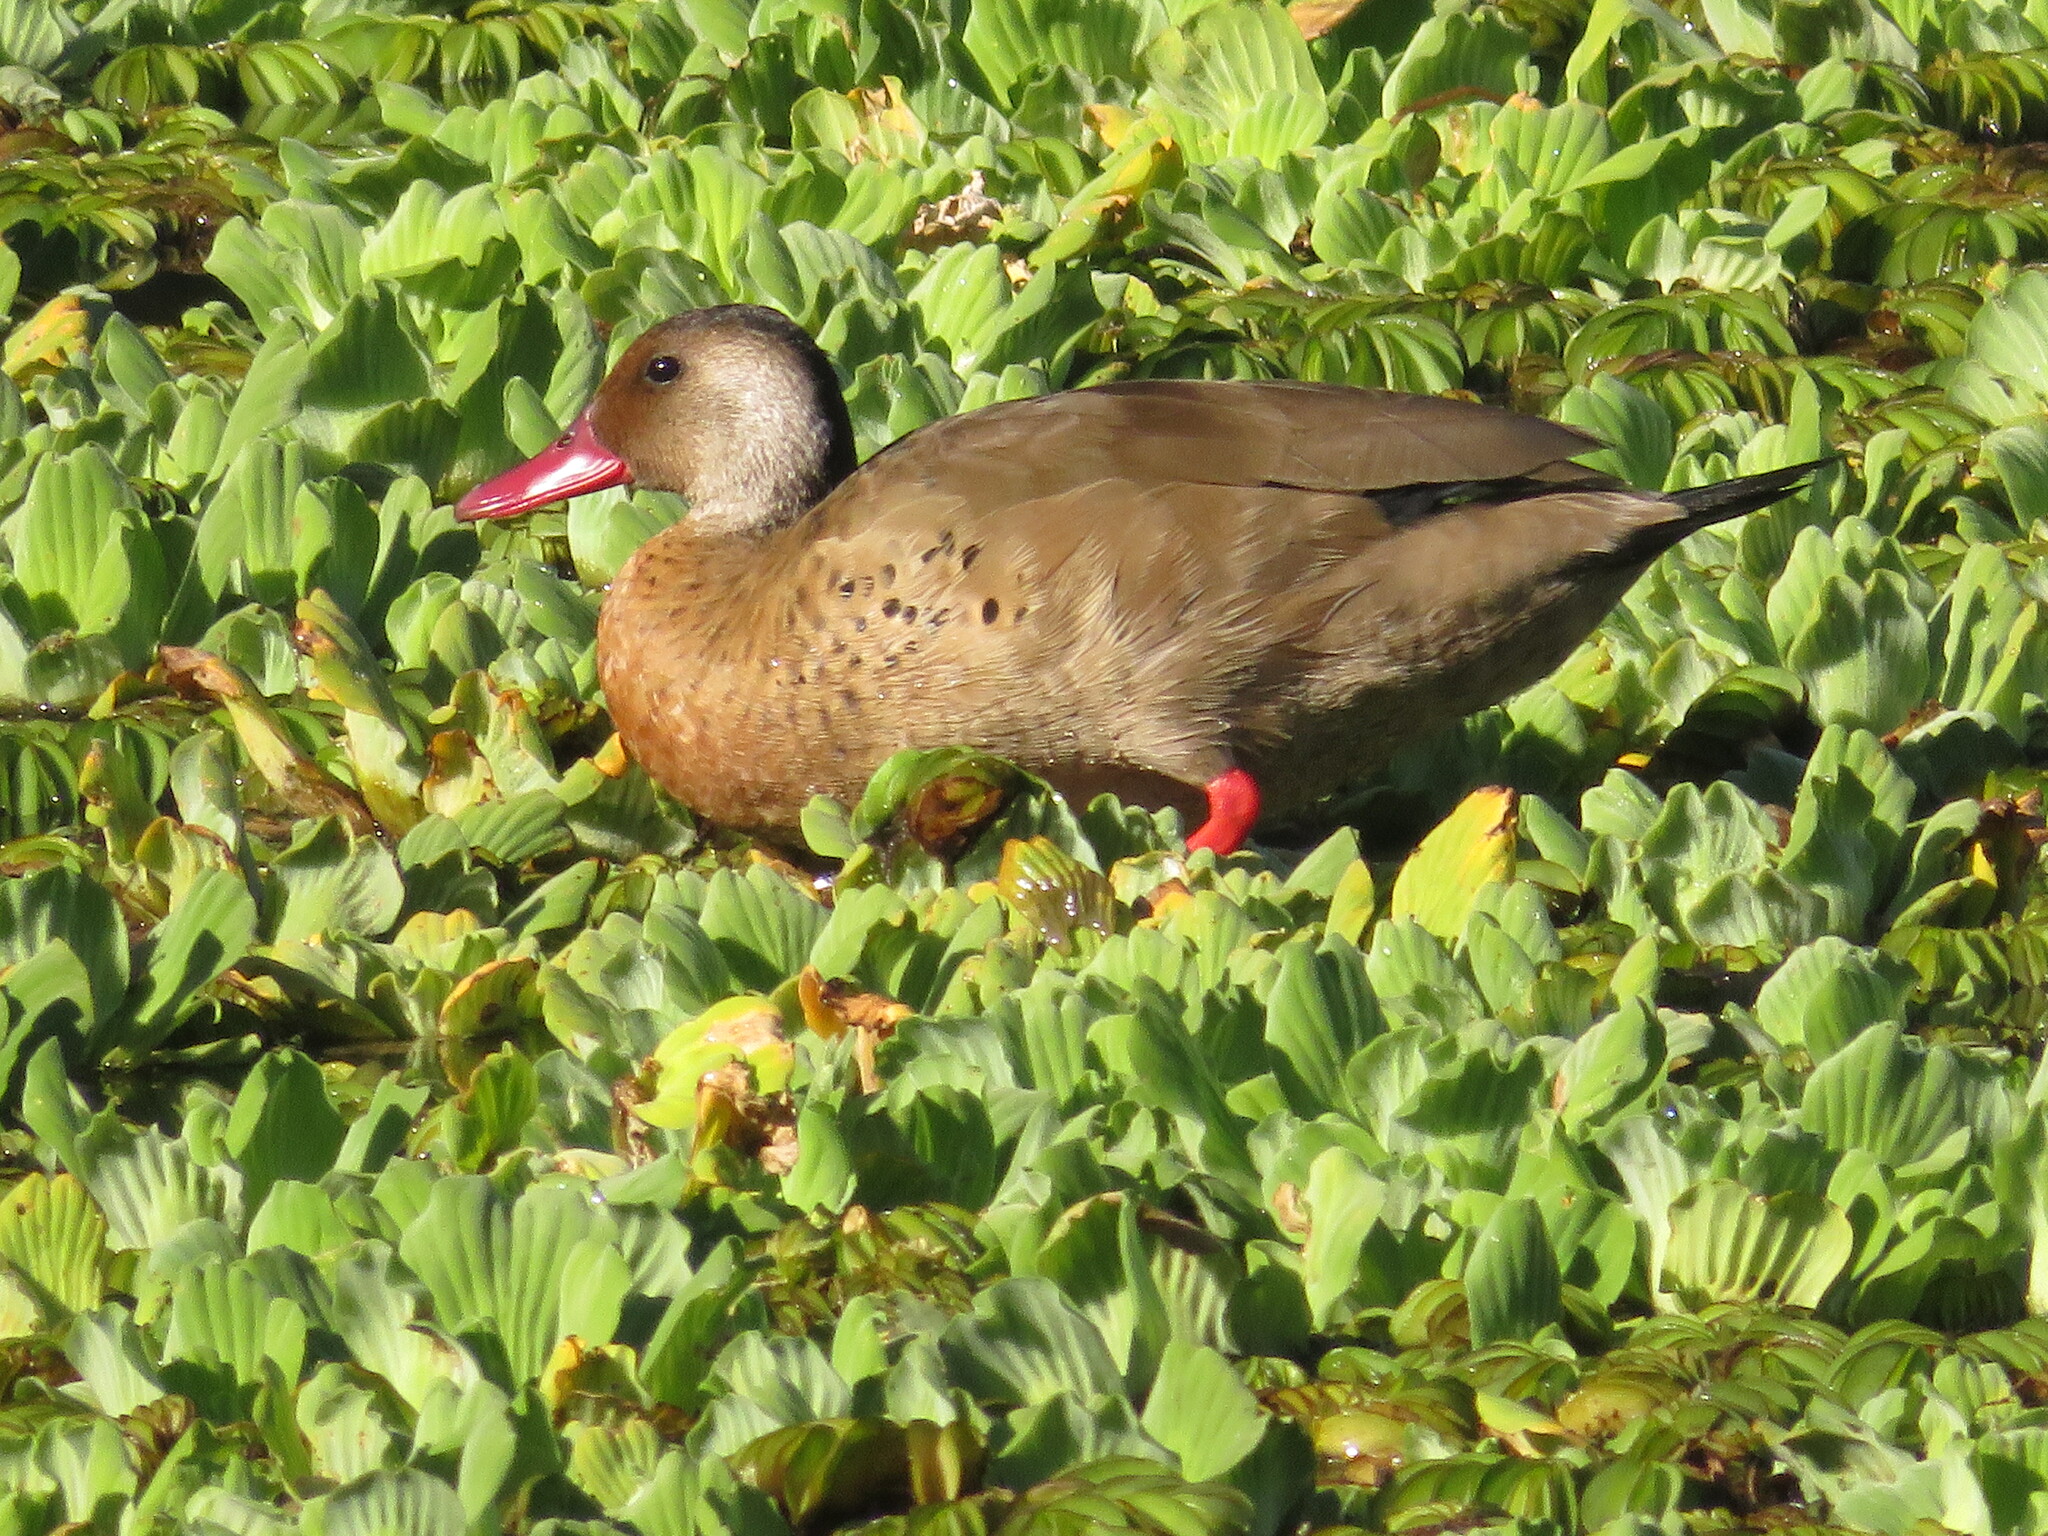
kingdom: Animalia
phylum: Chordata
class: Aves
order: Anseriformes
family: Anatidae
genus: Amazonetta
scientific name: Amazonetta brasiliensis
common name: Brazilian teal
